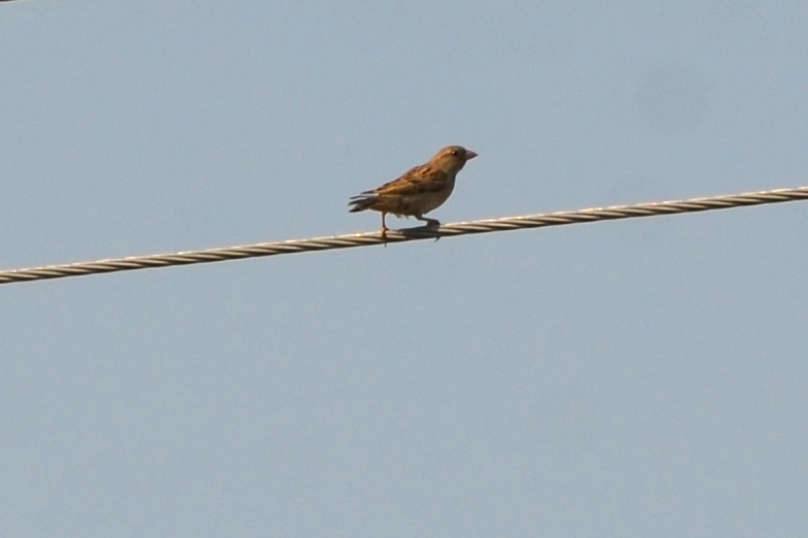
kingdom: Animalia
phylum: Chordata
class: Aves
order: Passeriformes
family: Passeridae
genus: Passer
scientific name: Passer domesticus
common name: House sparrow
